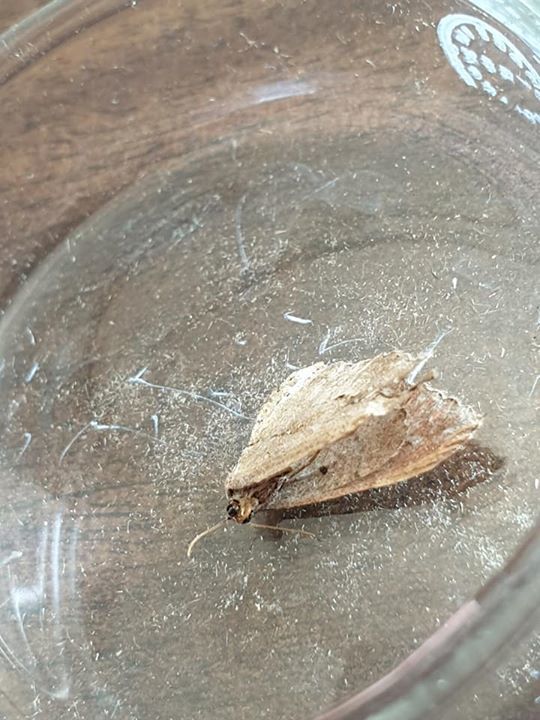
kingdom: Animalia
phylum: Arthropoda
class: Insecta
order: Lepidoptera
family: Geometridae
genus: Austrocidaria
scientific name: Austrocidaria gobiata
